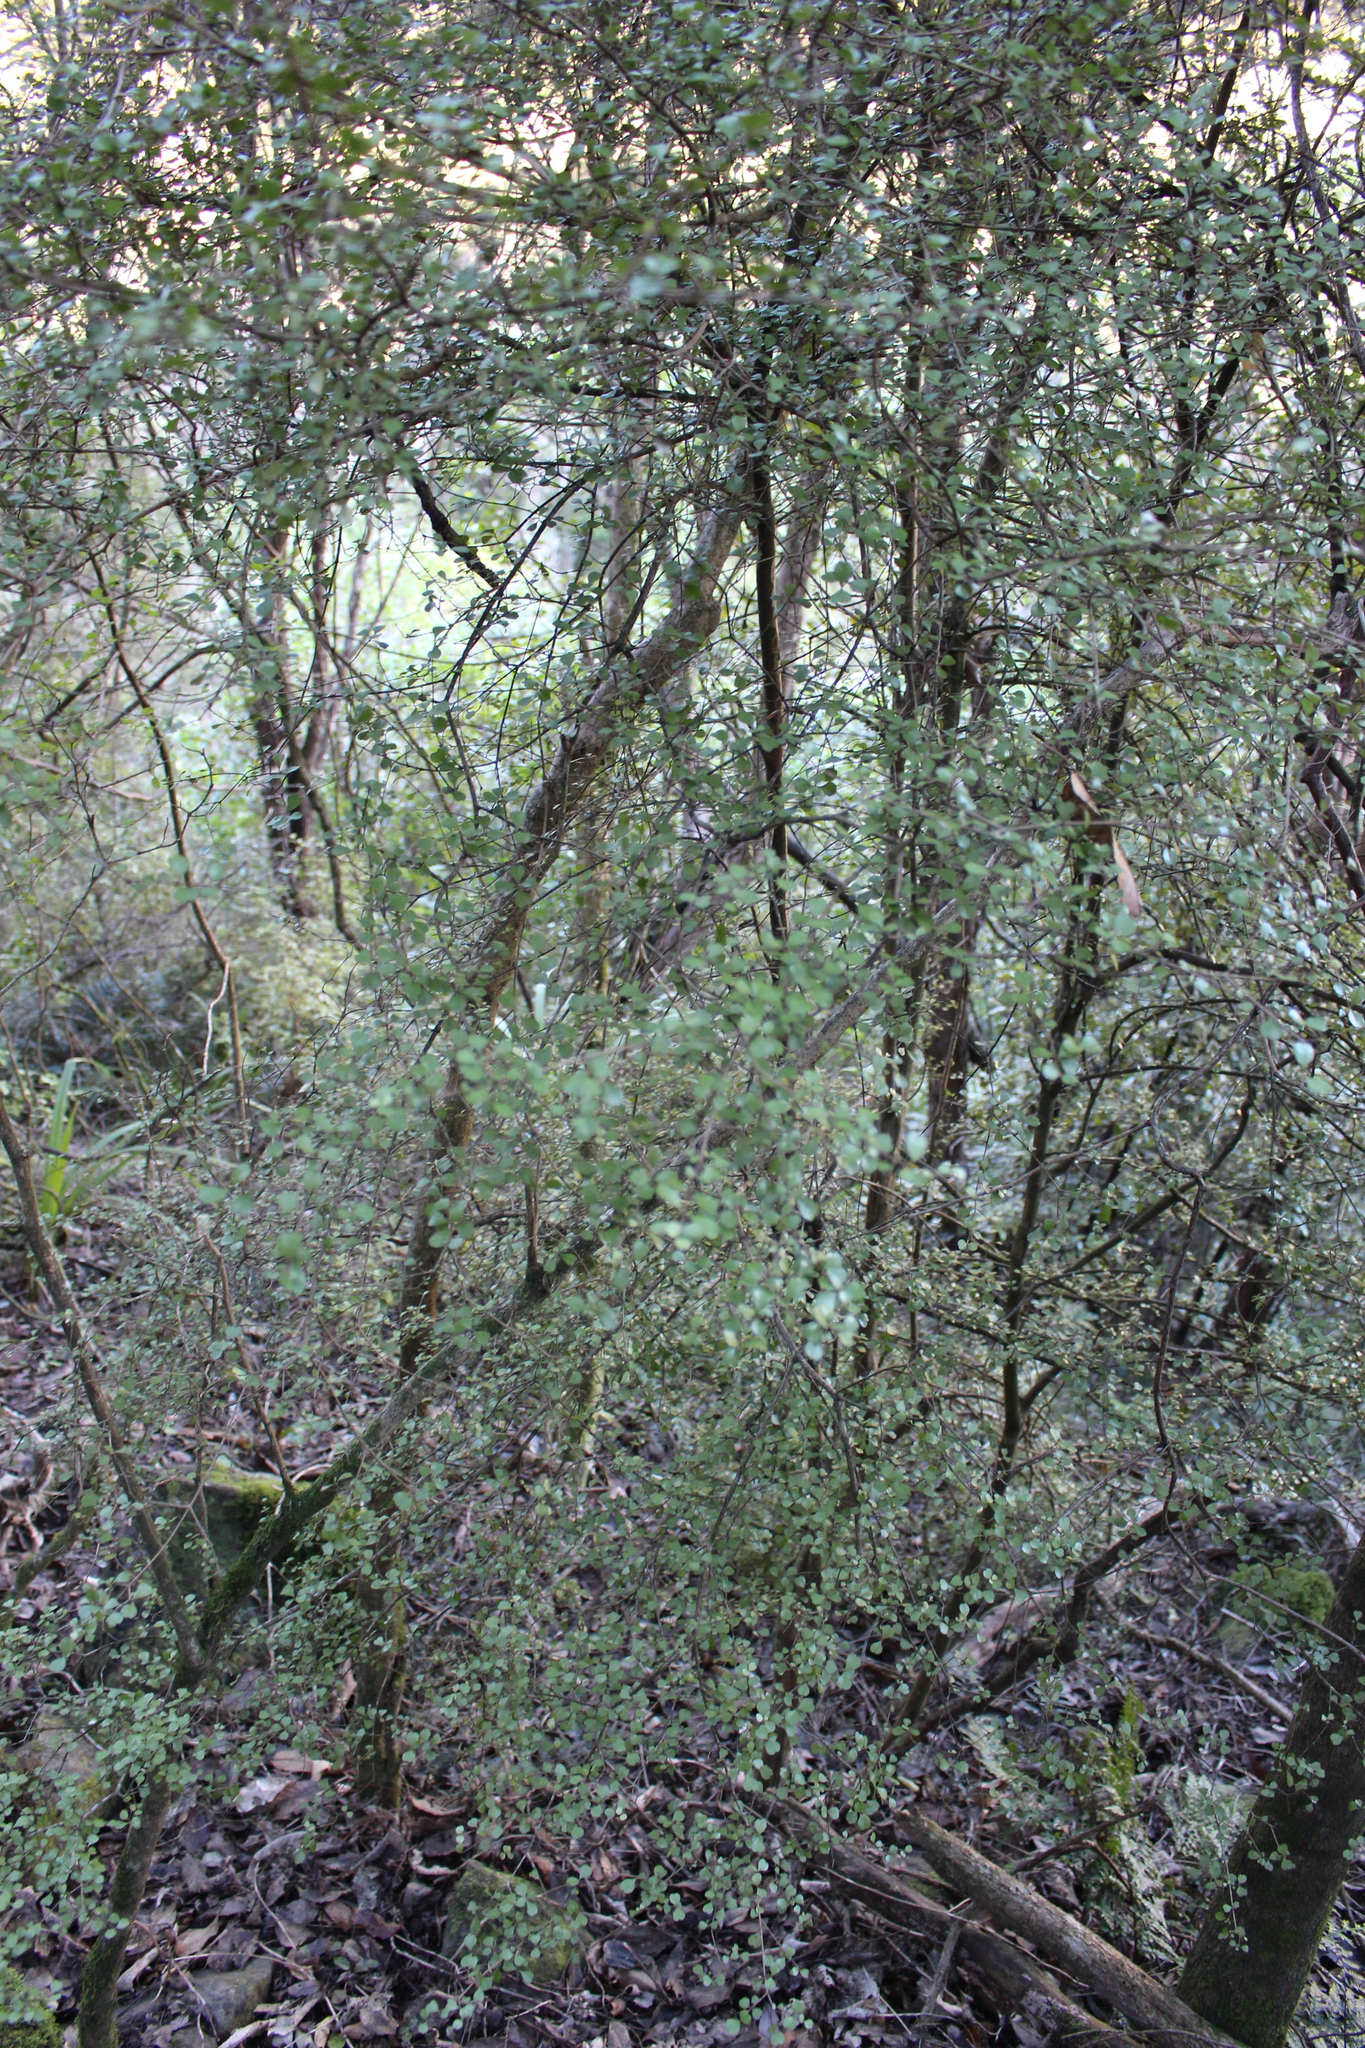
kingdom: Plantae
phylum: Tracheophyta
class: Magnoliopsida
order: Myrtales
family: Myrtaceae
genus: Lophomyrtus
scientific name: Lophomyrtus obcordata
